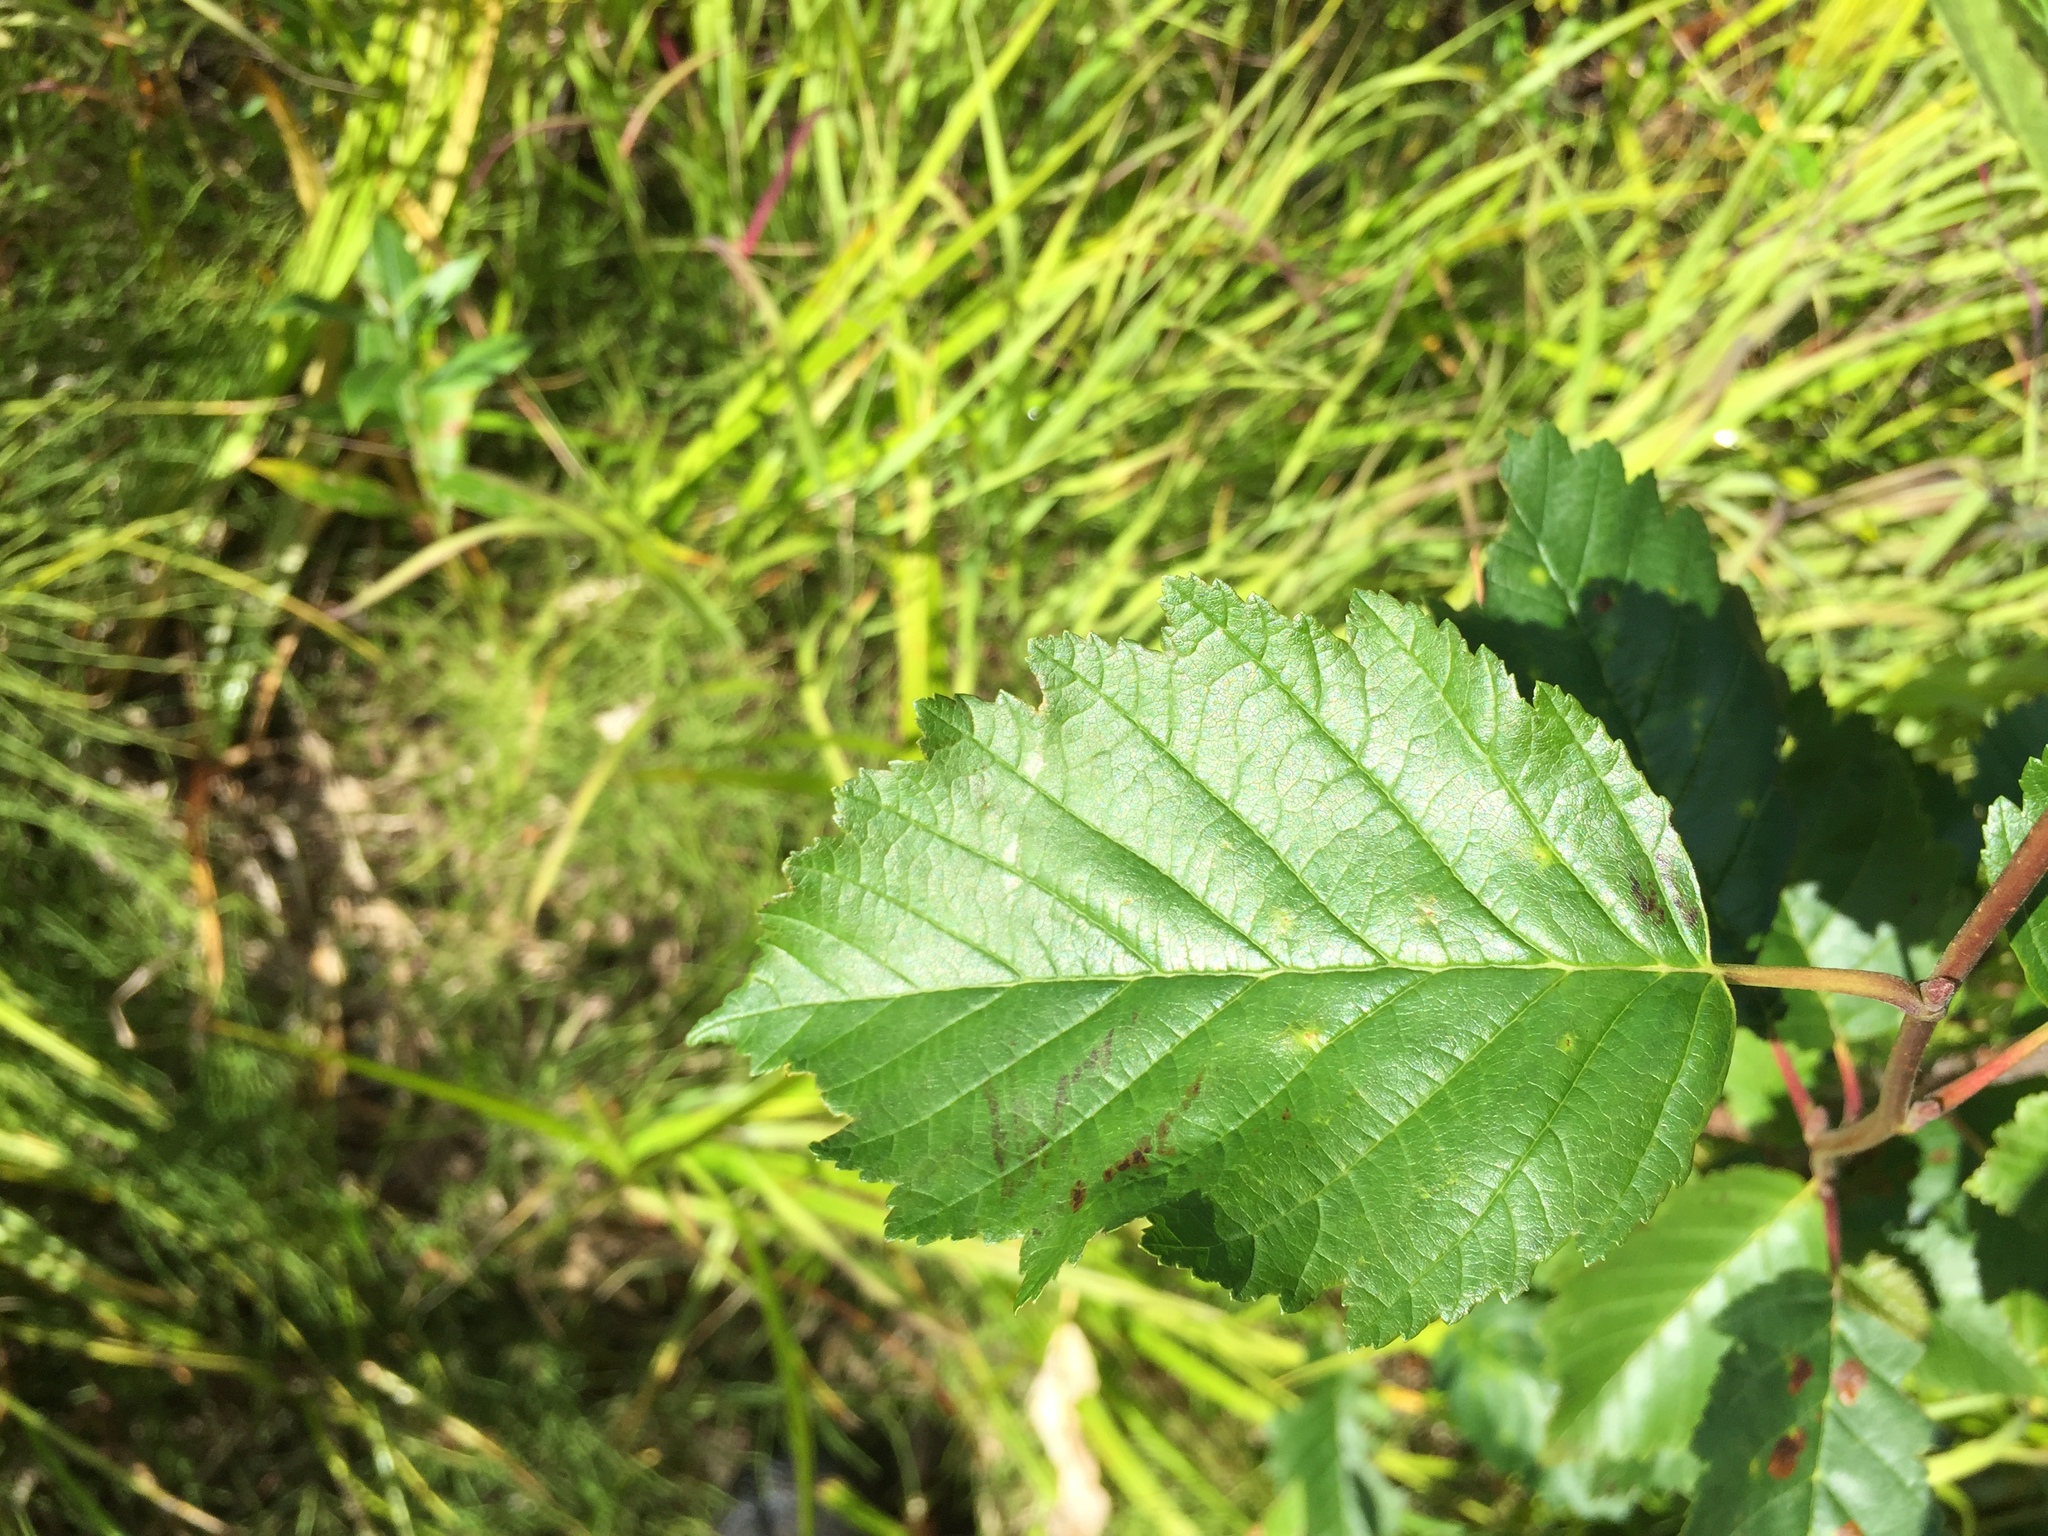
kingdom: Plantae
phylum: Tracheophyta
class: Magnoliopsida
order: Fagales
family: Betulaceae
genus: Alnus
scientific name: Alnus incana
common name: Grey alder
